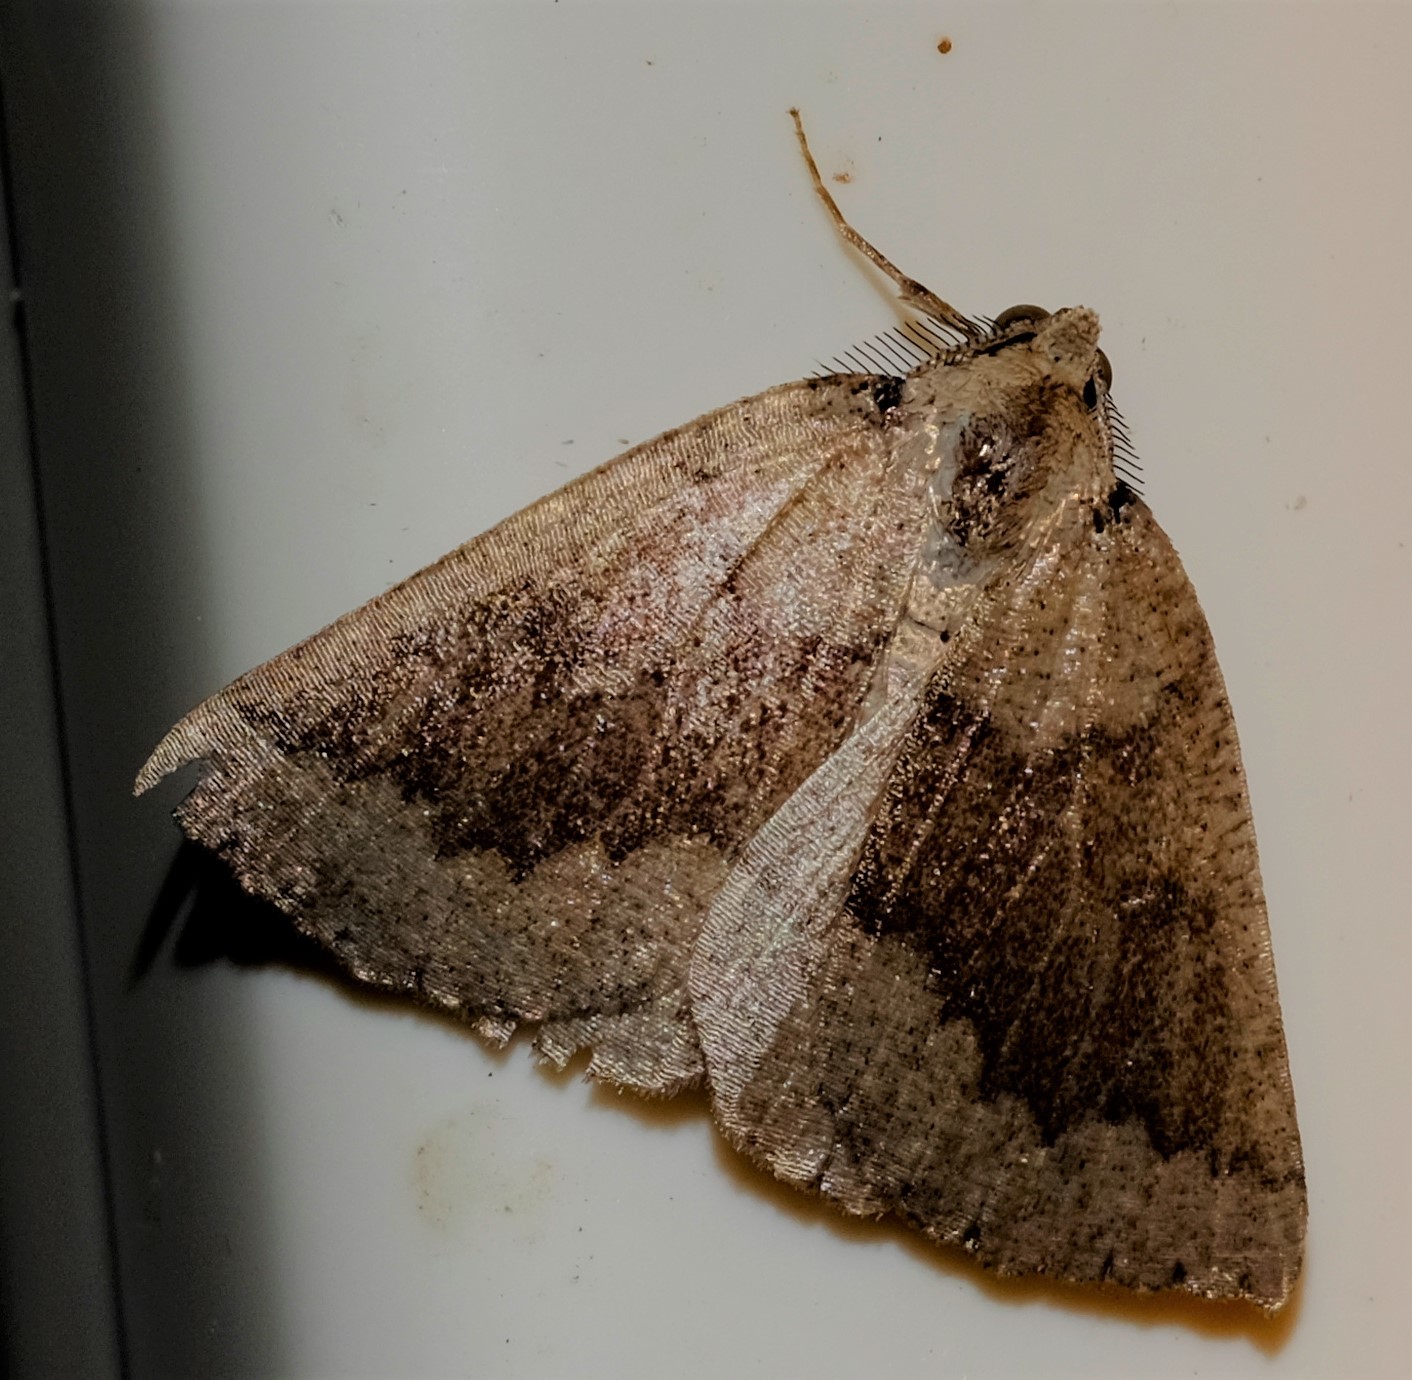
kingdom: Animalia
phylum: Arthropoda
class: Insecta
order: Lepidoptera
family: Geometridae
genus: Amelora
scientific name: Amelora mesocapna
